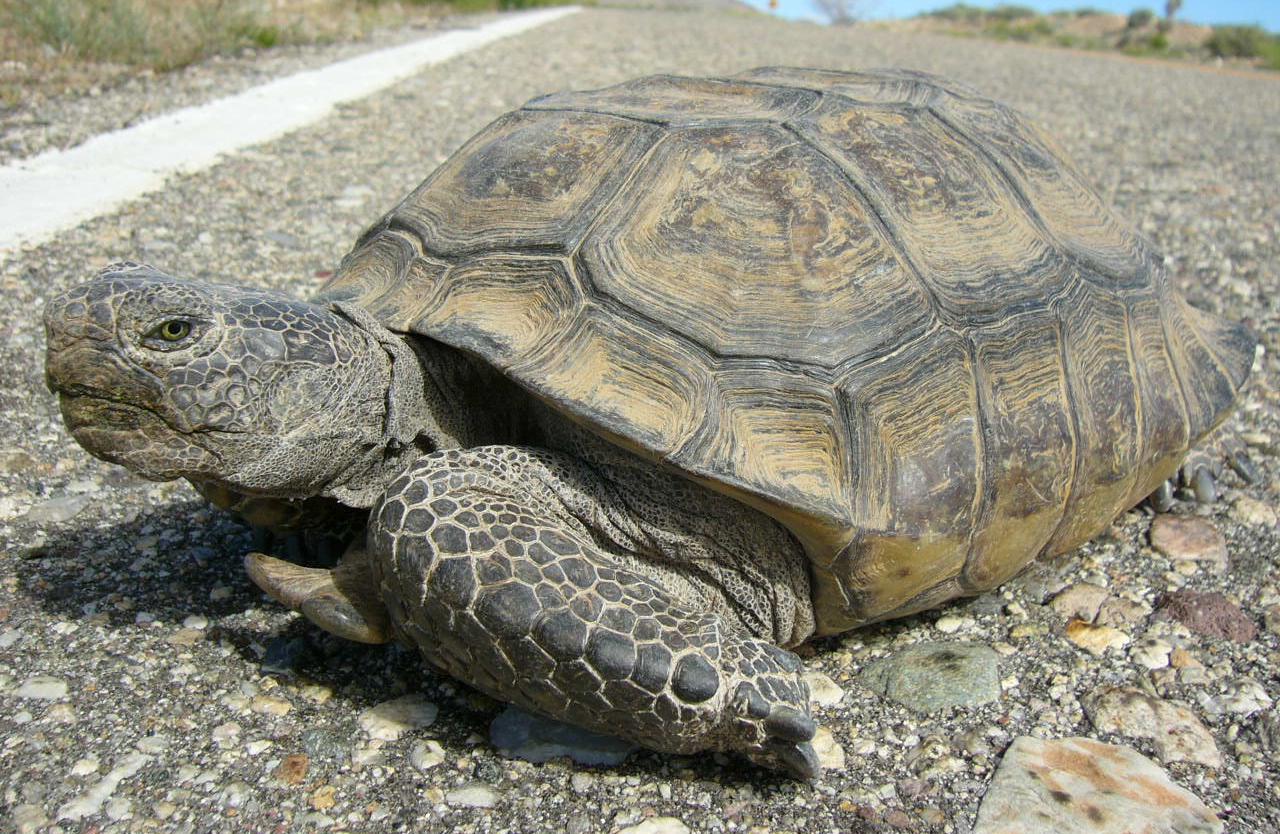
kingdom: Animalia
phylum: Chordata
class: Testudines
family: Testudinidae
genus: Gopherus
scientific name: Gopherus agassizii
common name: Mojave desert tortoise
